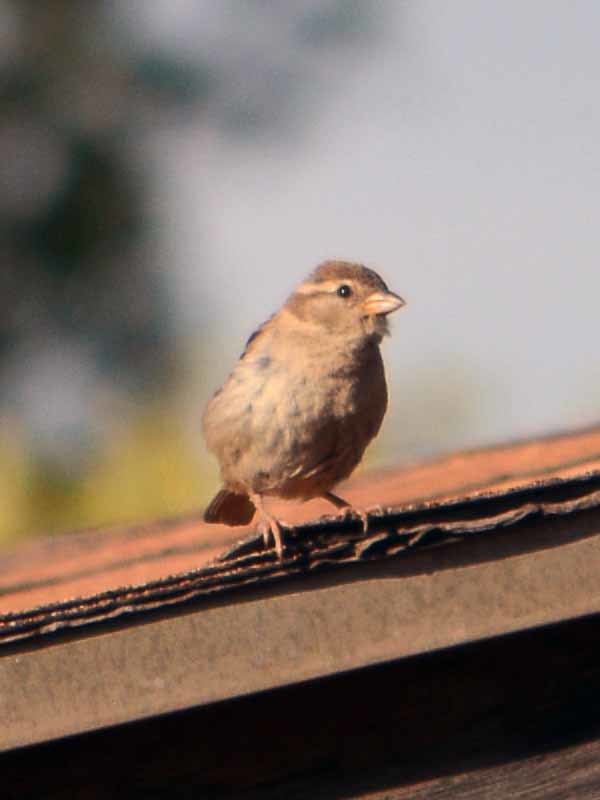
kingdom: Animalia
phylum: Chordata
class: Aves
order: Passeriformes
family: Passeridae
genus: Passer
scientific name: Passer domesticus
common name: House sparrow
